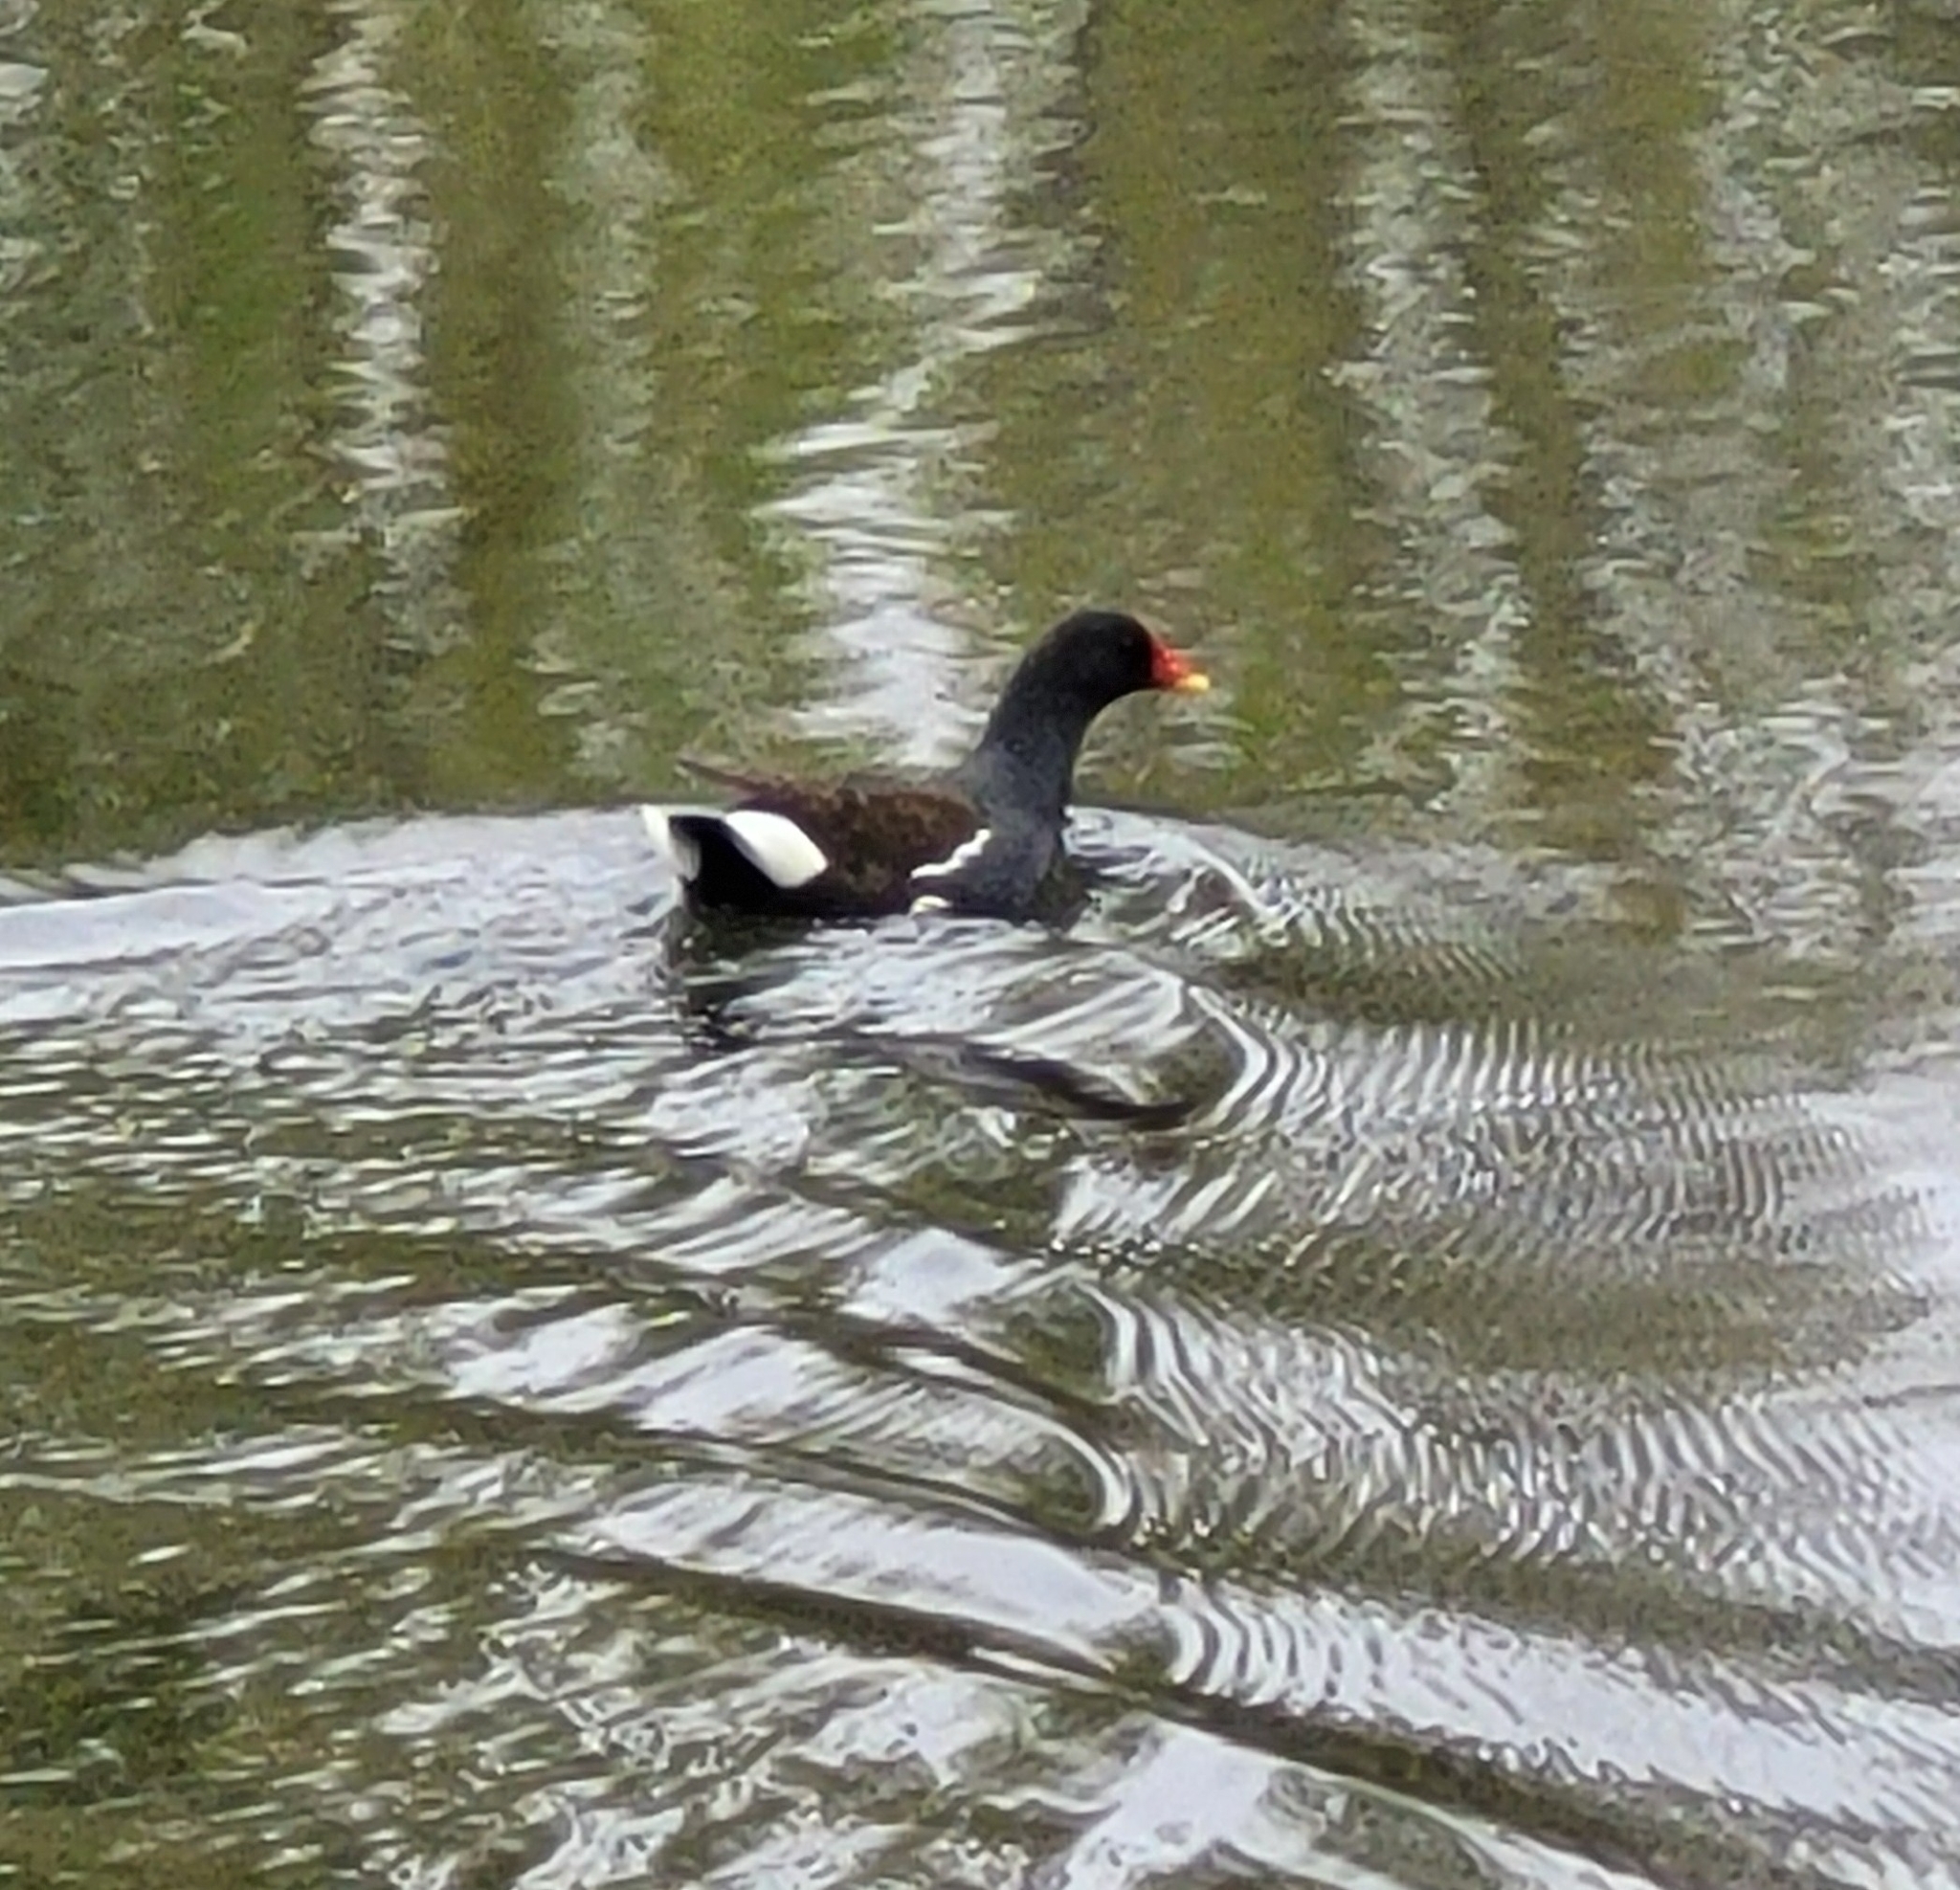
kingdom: Animalia
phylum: Chordata
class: Aves
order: Gruiformes
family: Rallidae
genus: Gallinula
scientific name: Gallinula chloropus
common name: Common moorhen
